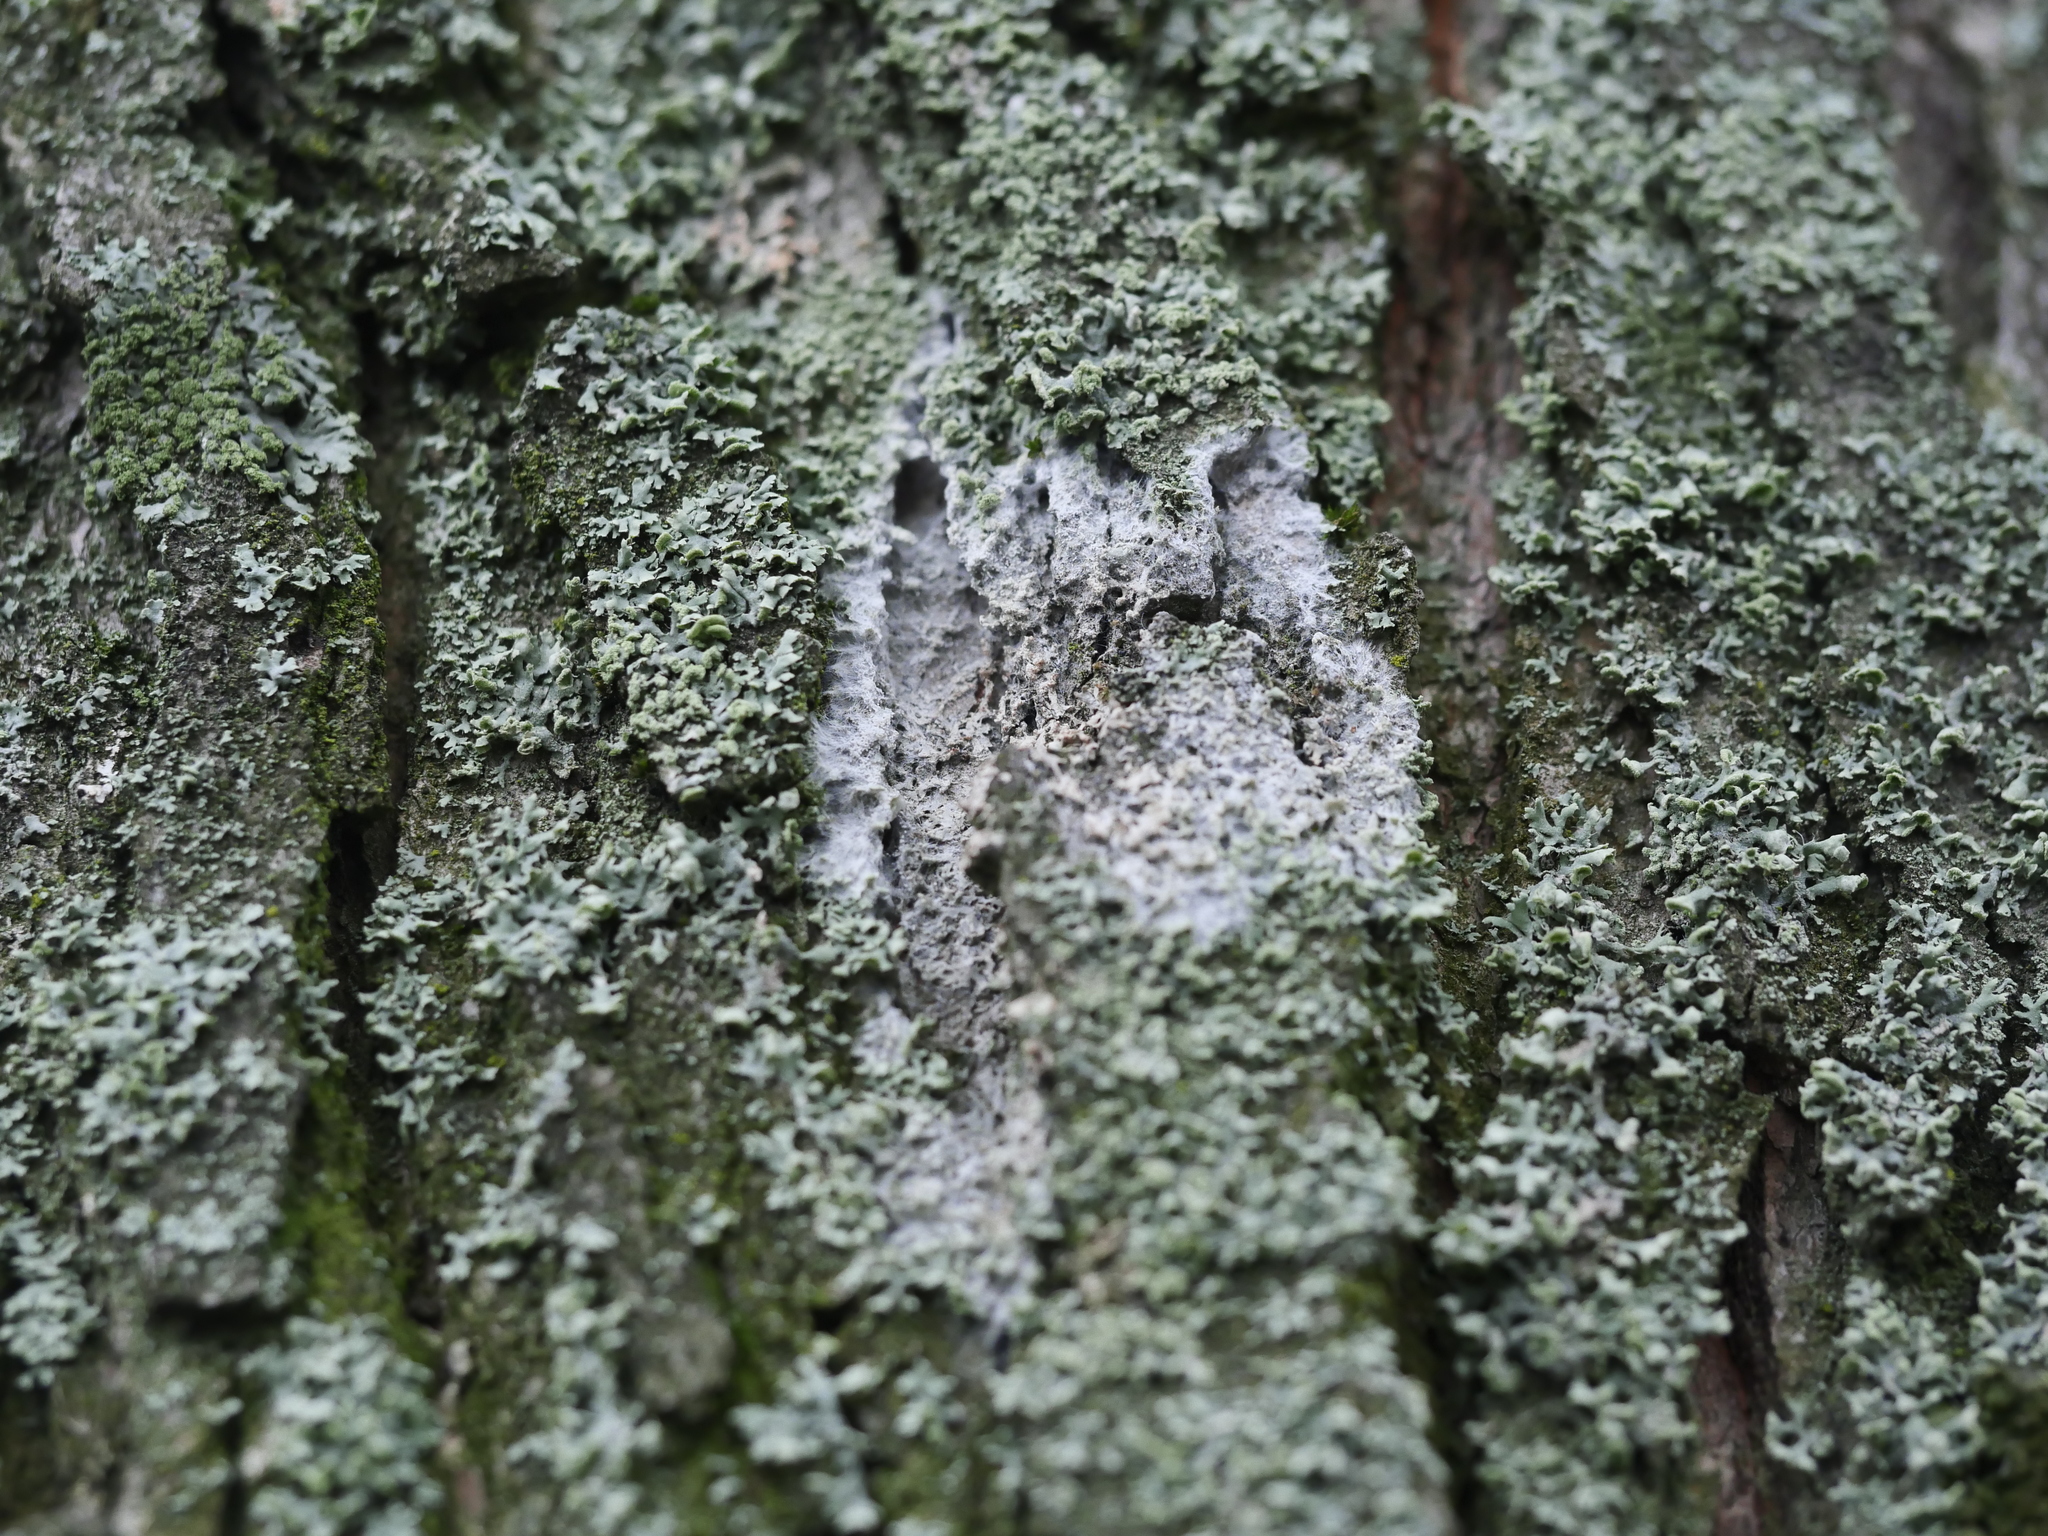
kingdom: Fungi
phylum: Basidiomycota
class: Agaricomycetes
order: Atheliales
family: Atheliaceae
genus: Athelia
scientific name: Athelia arachnoidea
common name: Candelabra duster
